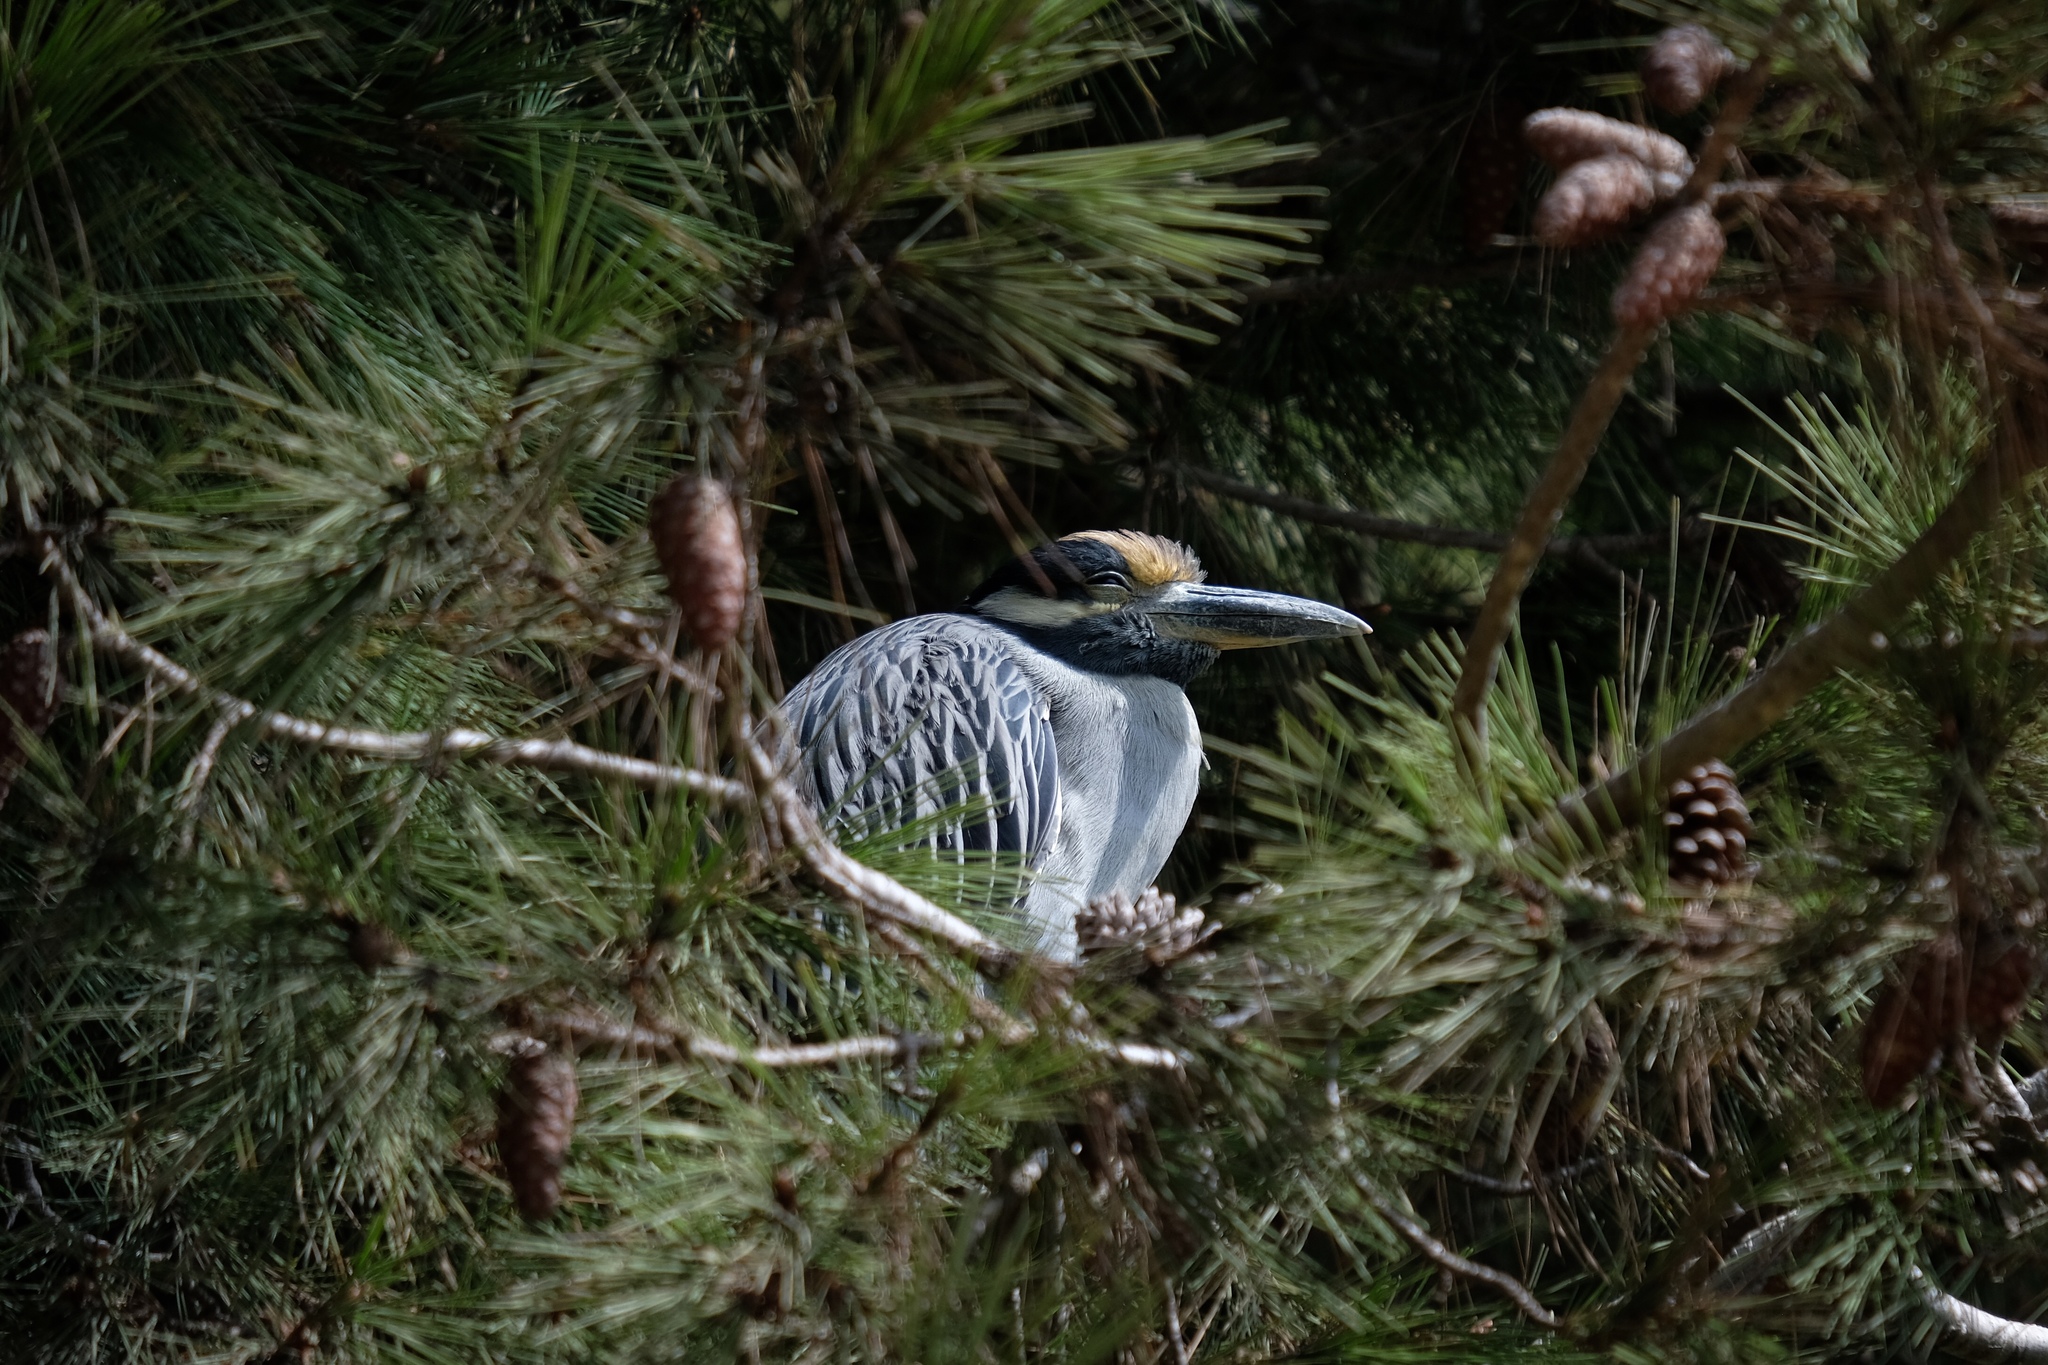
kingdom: Animalia
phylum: Chordata
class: Aves
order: Pelecaniformes
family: Ardeidae
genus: Nyctanassa
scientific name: Nyctanassa violacea
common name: Yellow-crowned night heron
